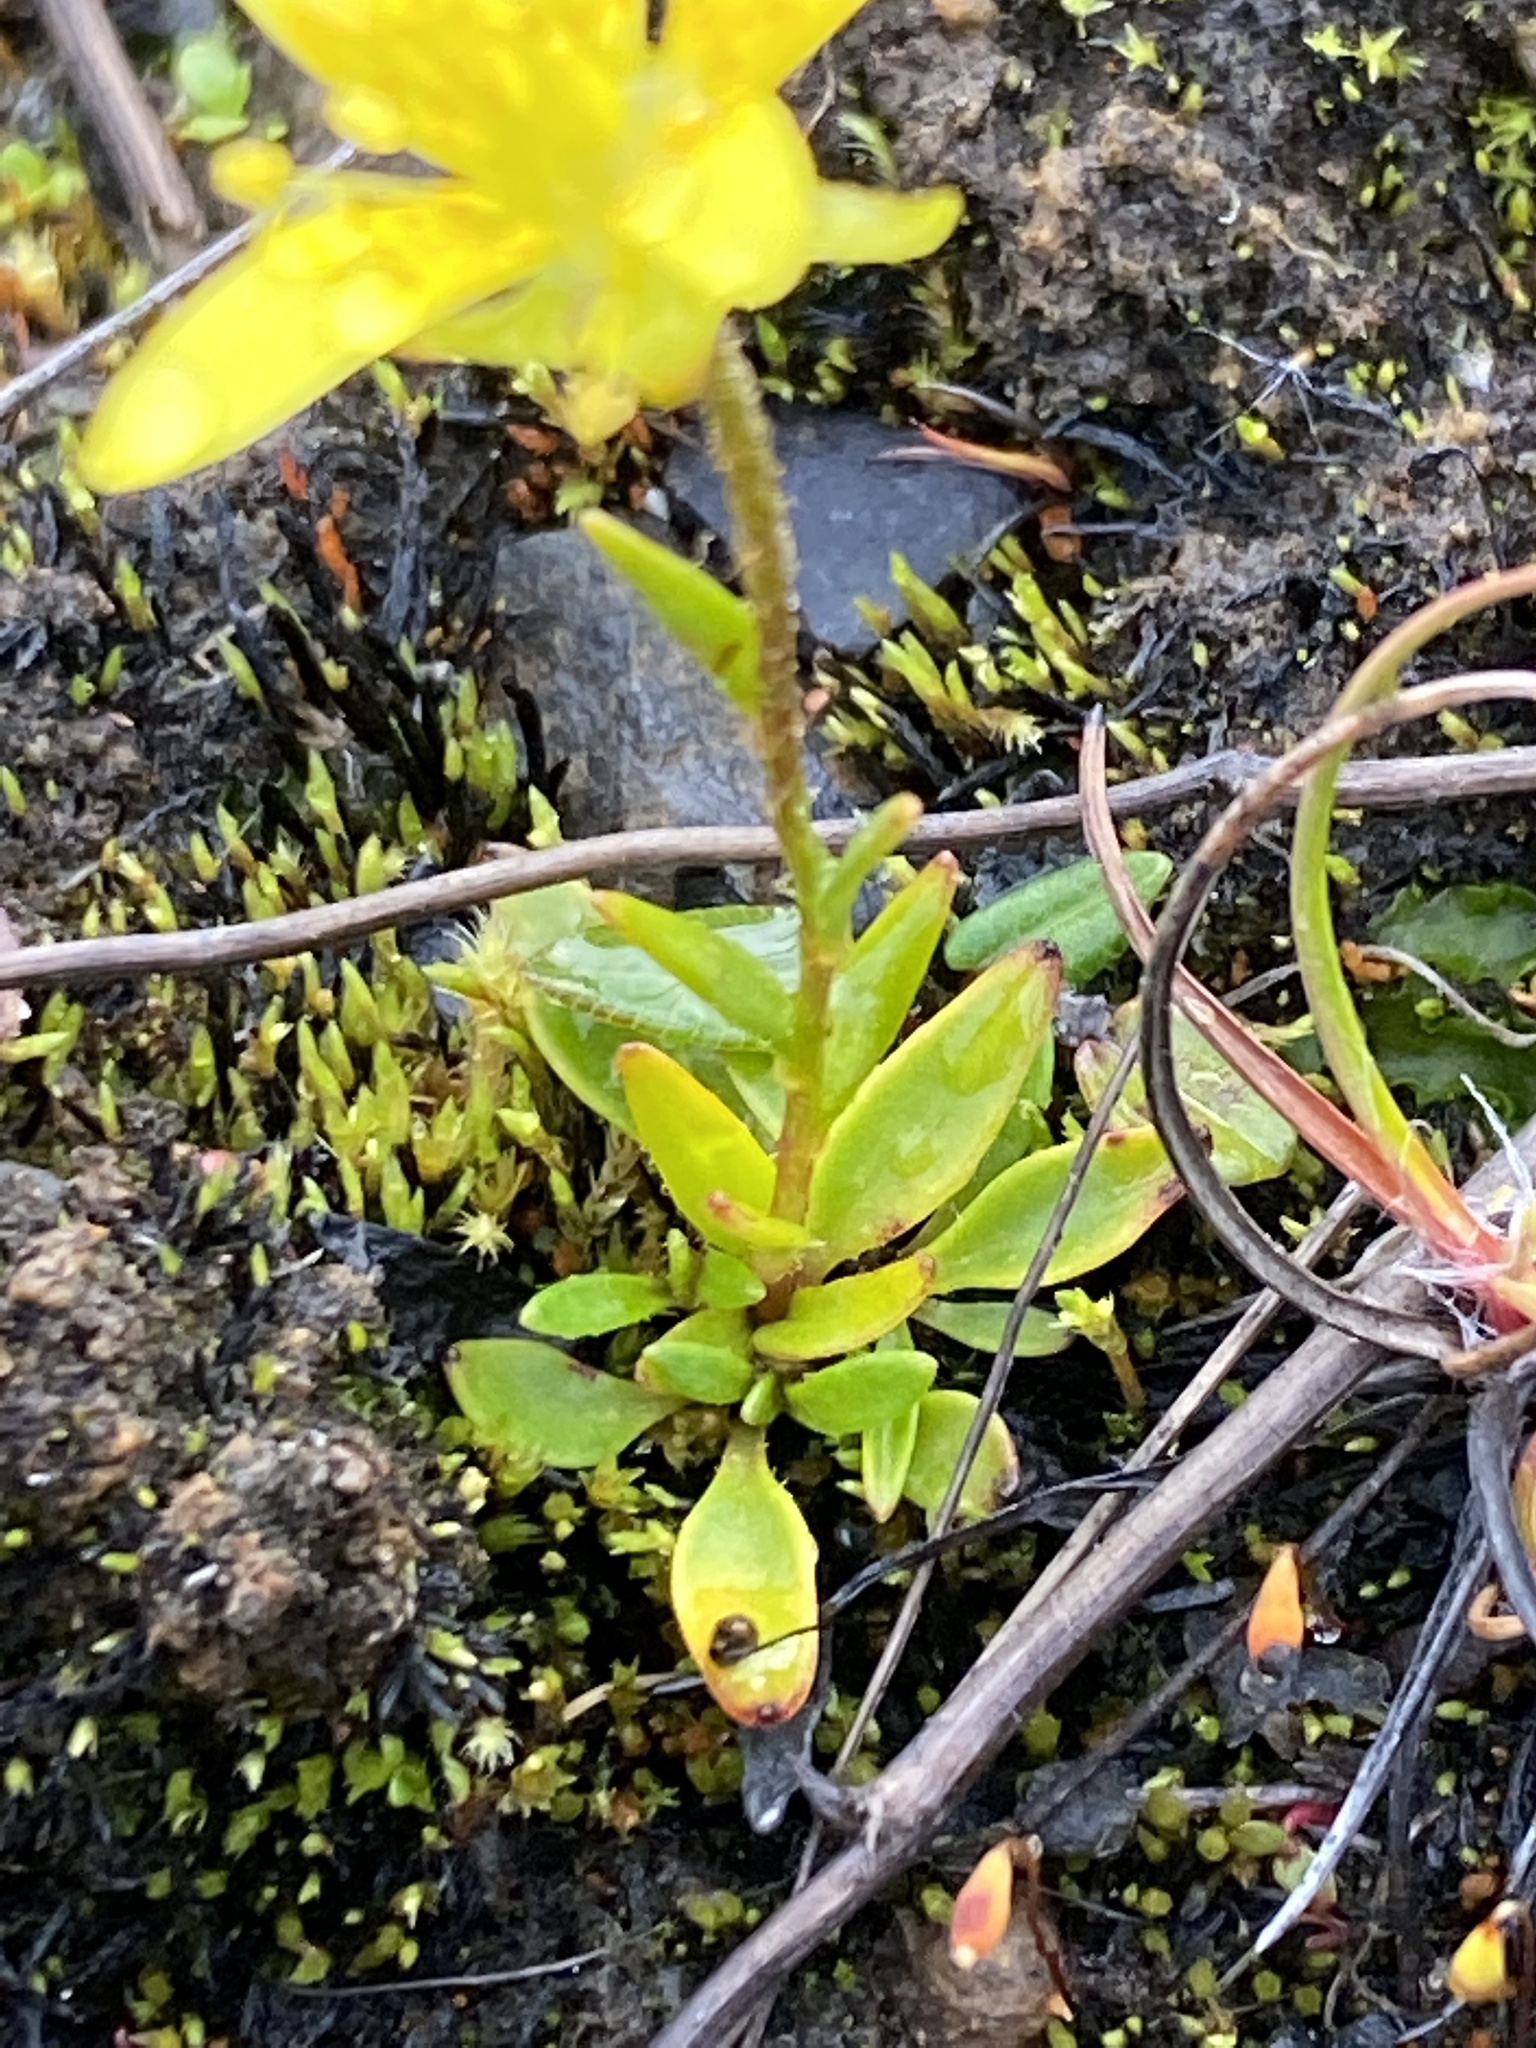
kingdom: Plantae
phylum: Tracheophyta
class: Magnoliopsida
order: Saxifragales
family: Saxifragaceae
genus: Saxifraga
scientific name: Saxifraga hirculus
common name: Yellow marsh saxifrage
